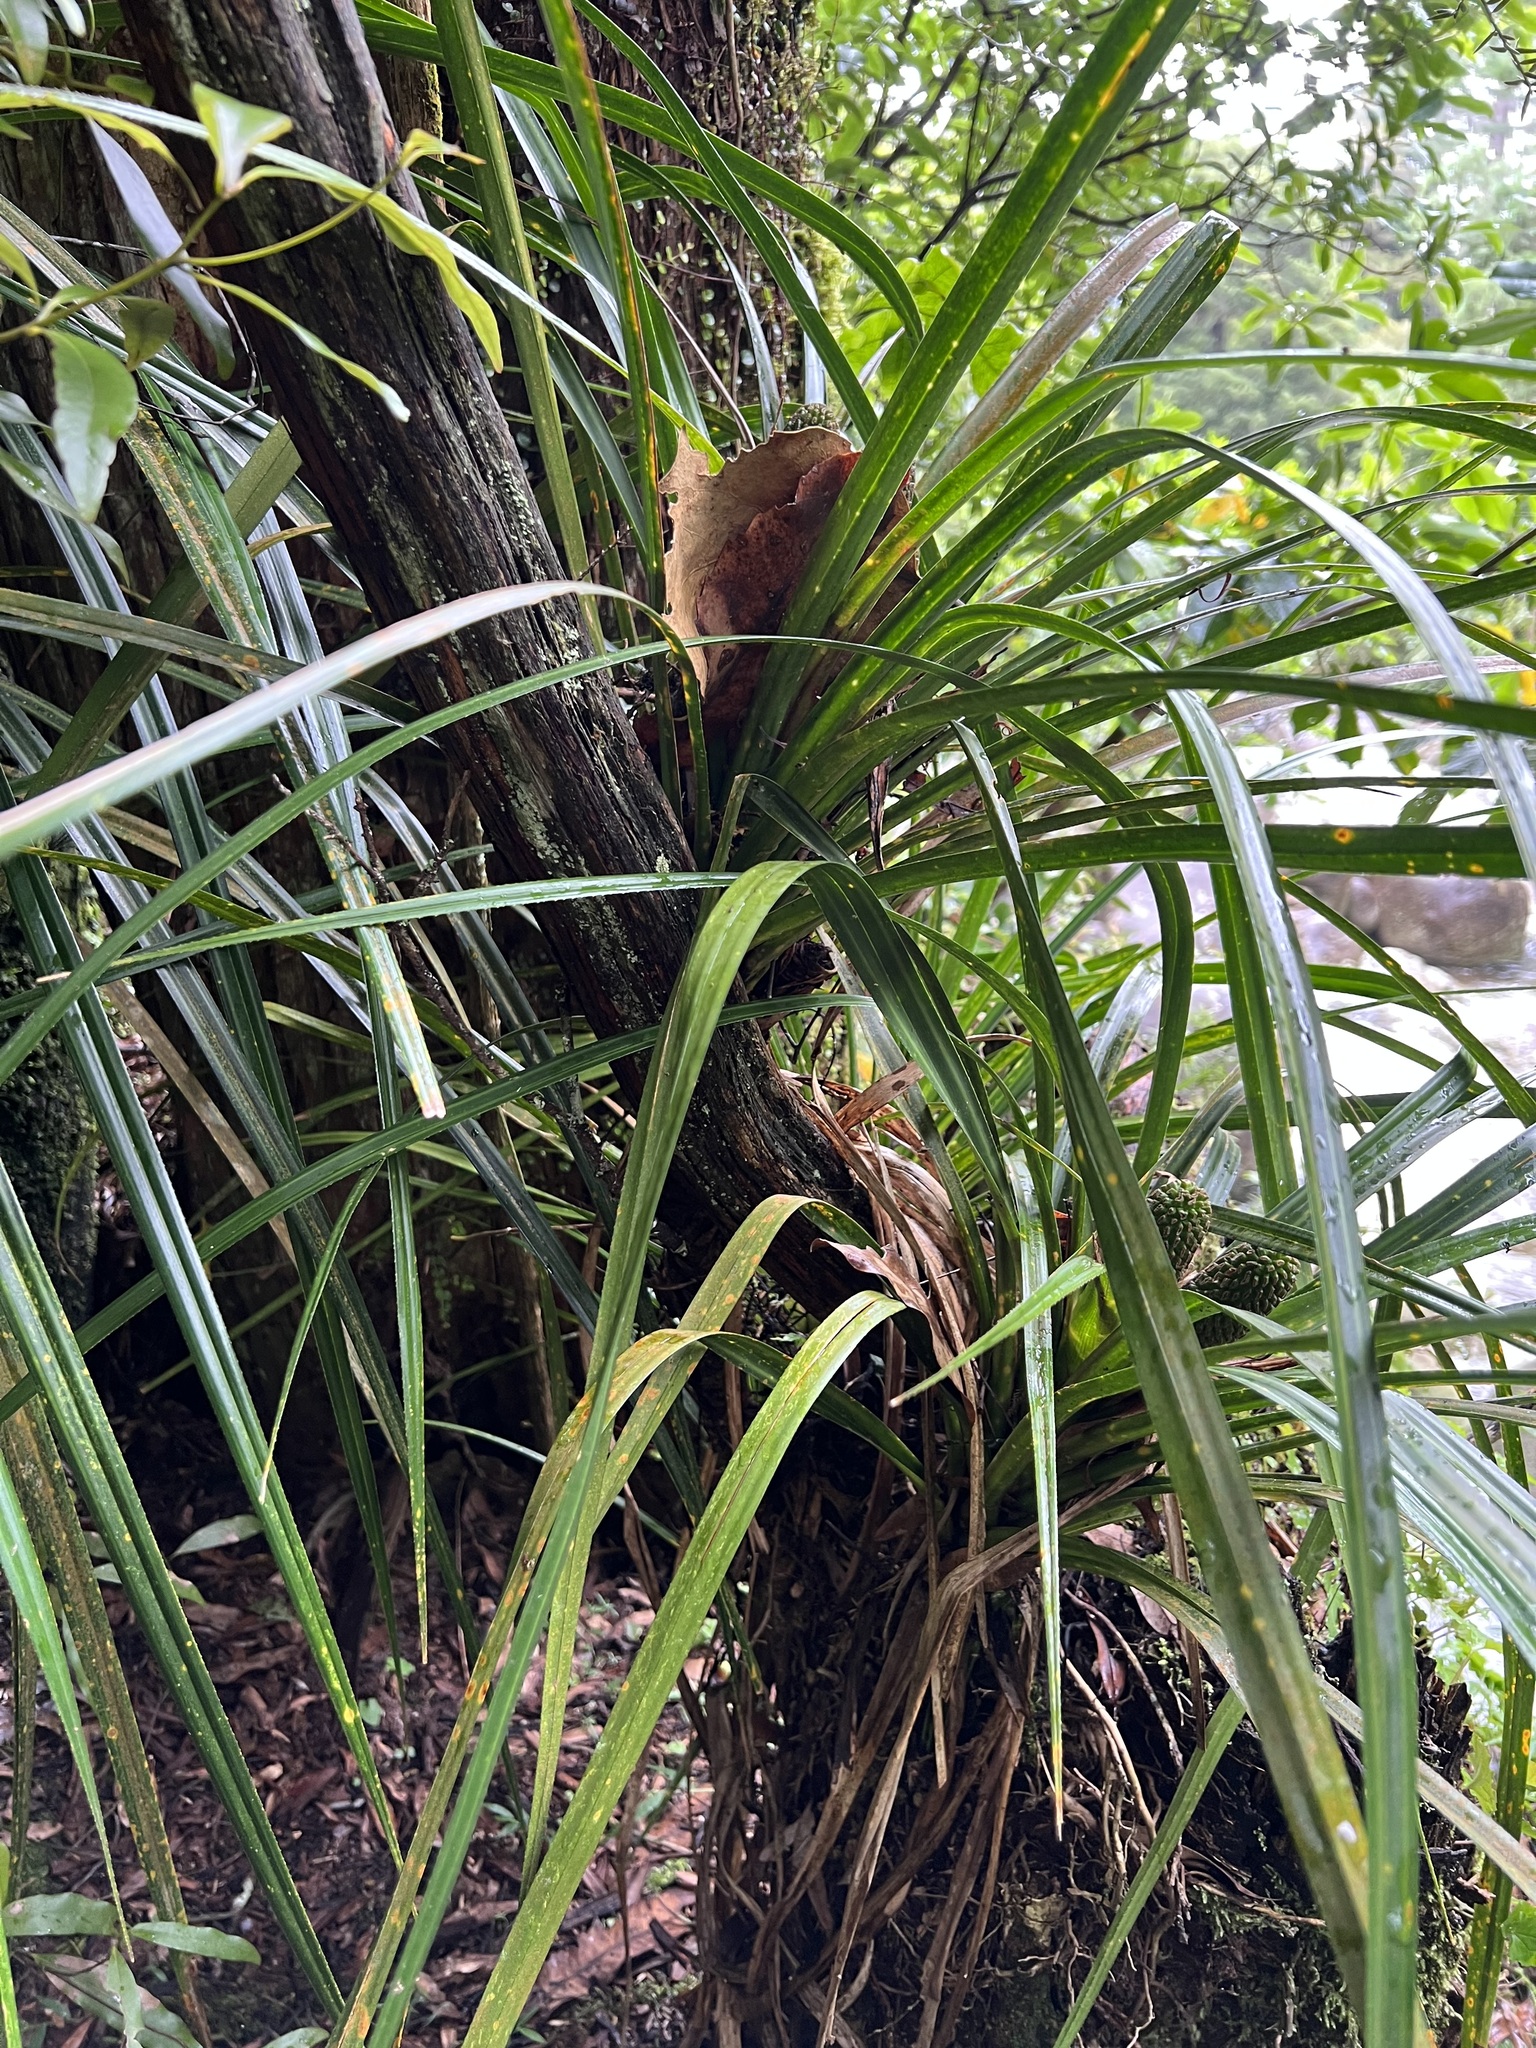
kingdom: Plantae
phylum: Tracheophyta
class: Liliopsida
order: Pandanales
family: Pandanaceae
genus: Freycinetia
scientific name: Freycinetia banksii
